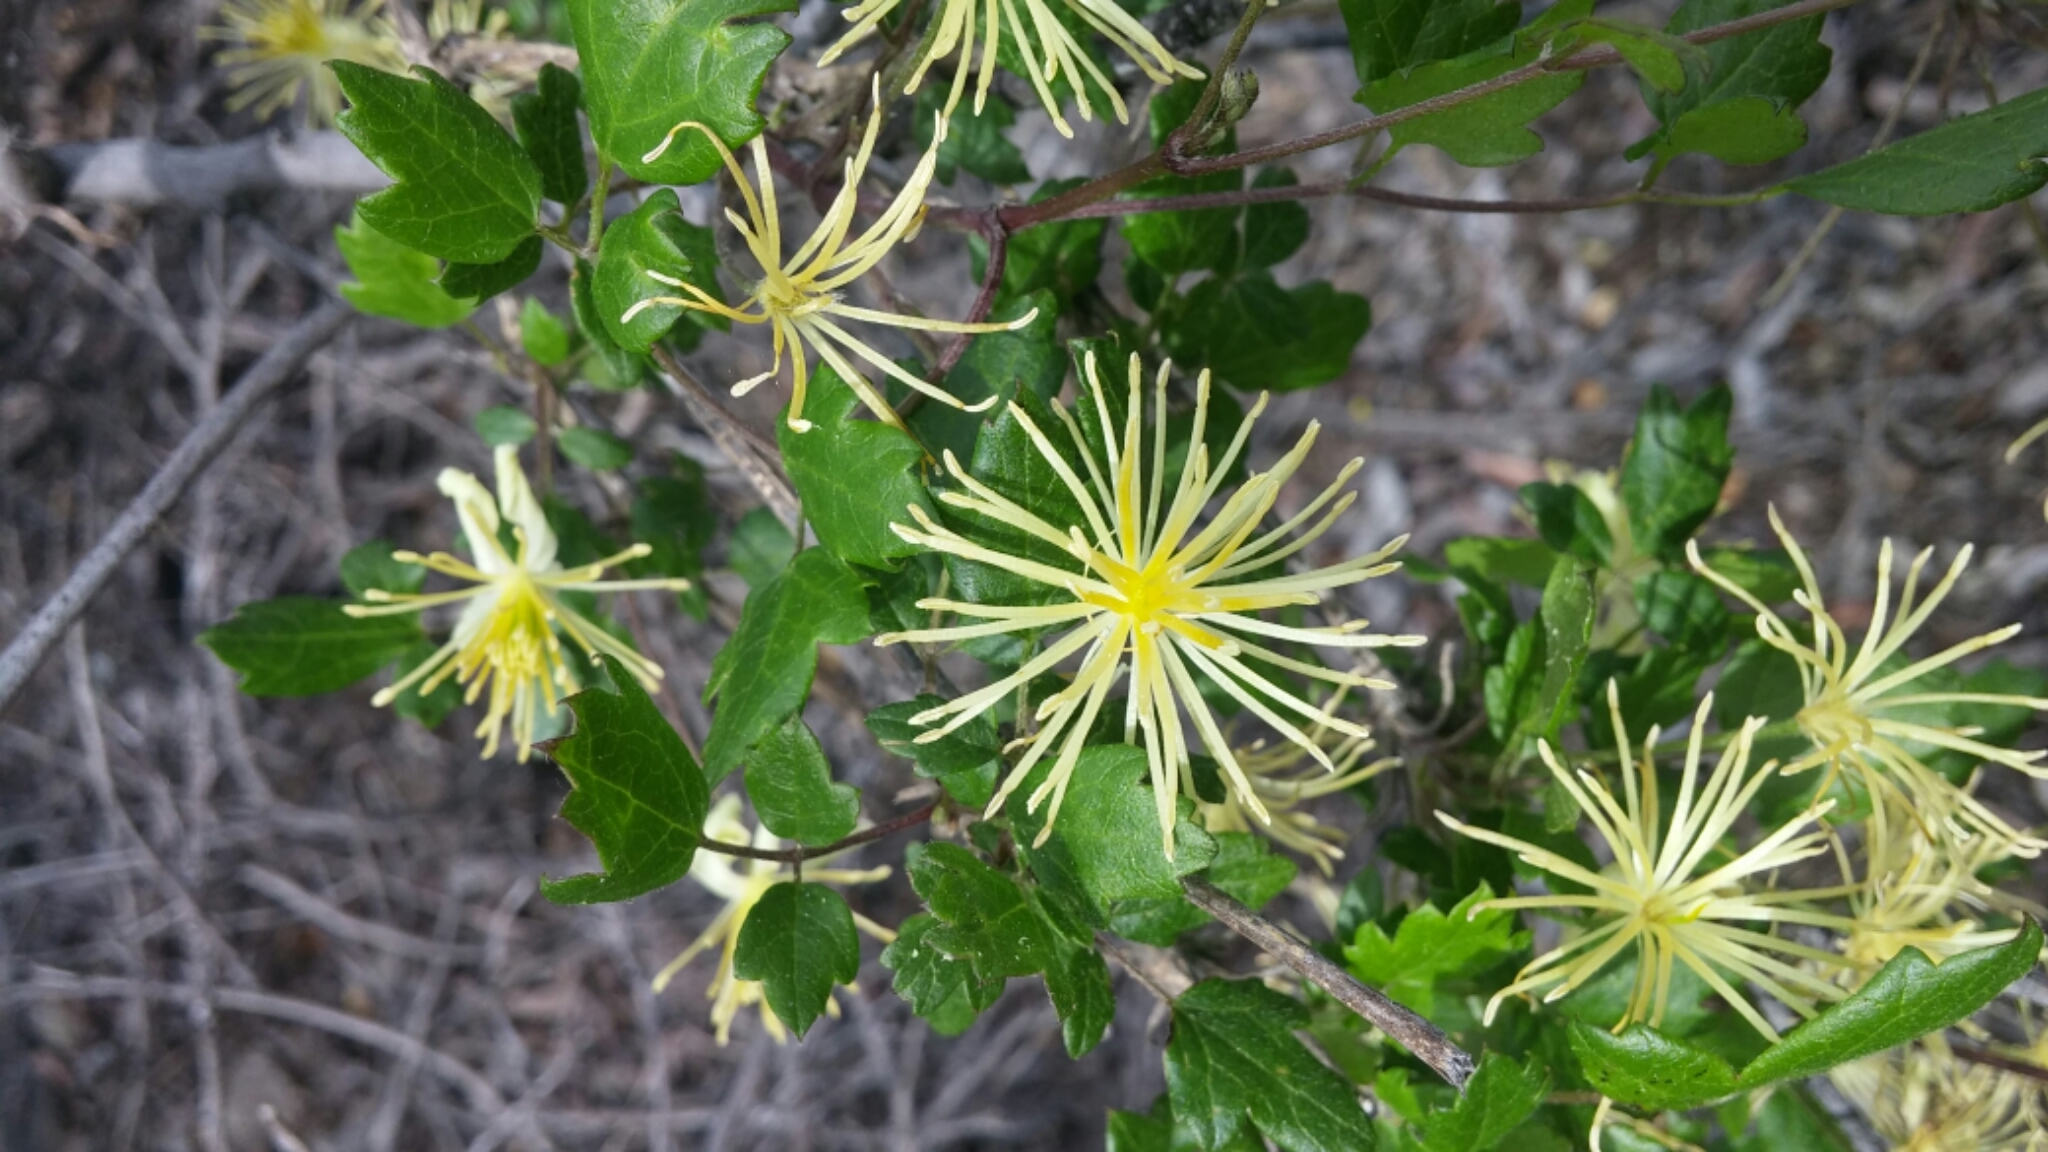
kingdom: Plantae
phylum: Tracheophyta
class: Magnoliopsida
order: Ranunculales
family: Ranunculaceae
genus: Clematis
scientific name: Clematis pauciflora
